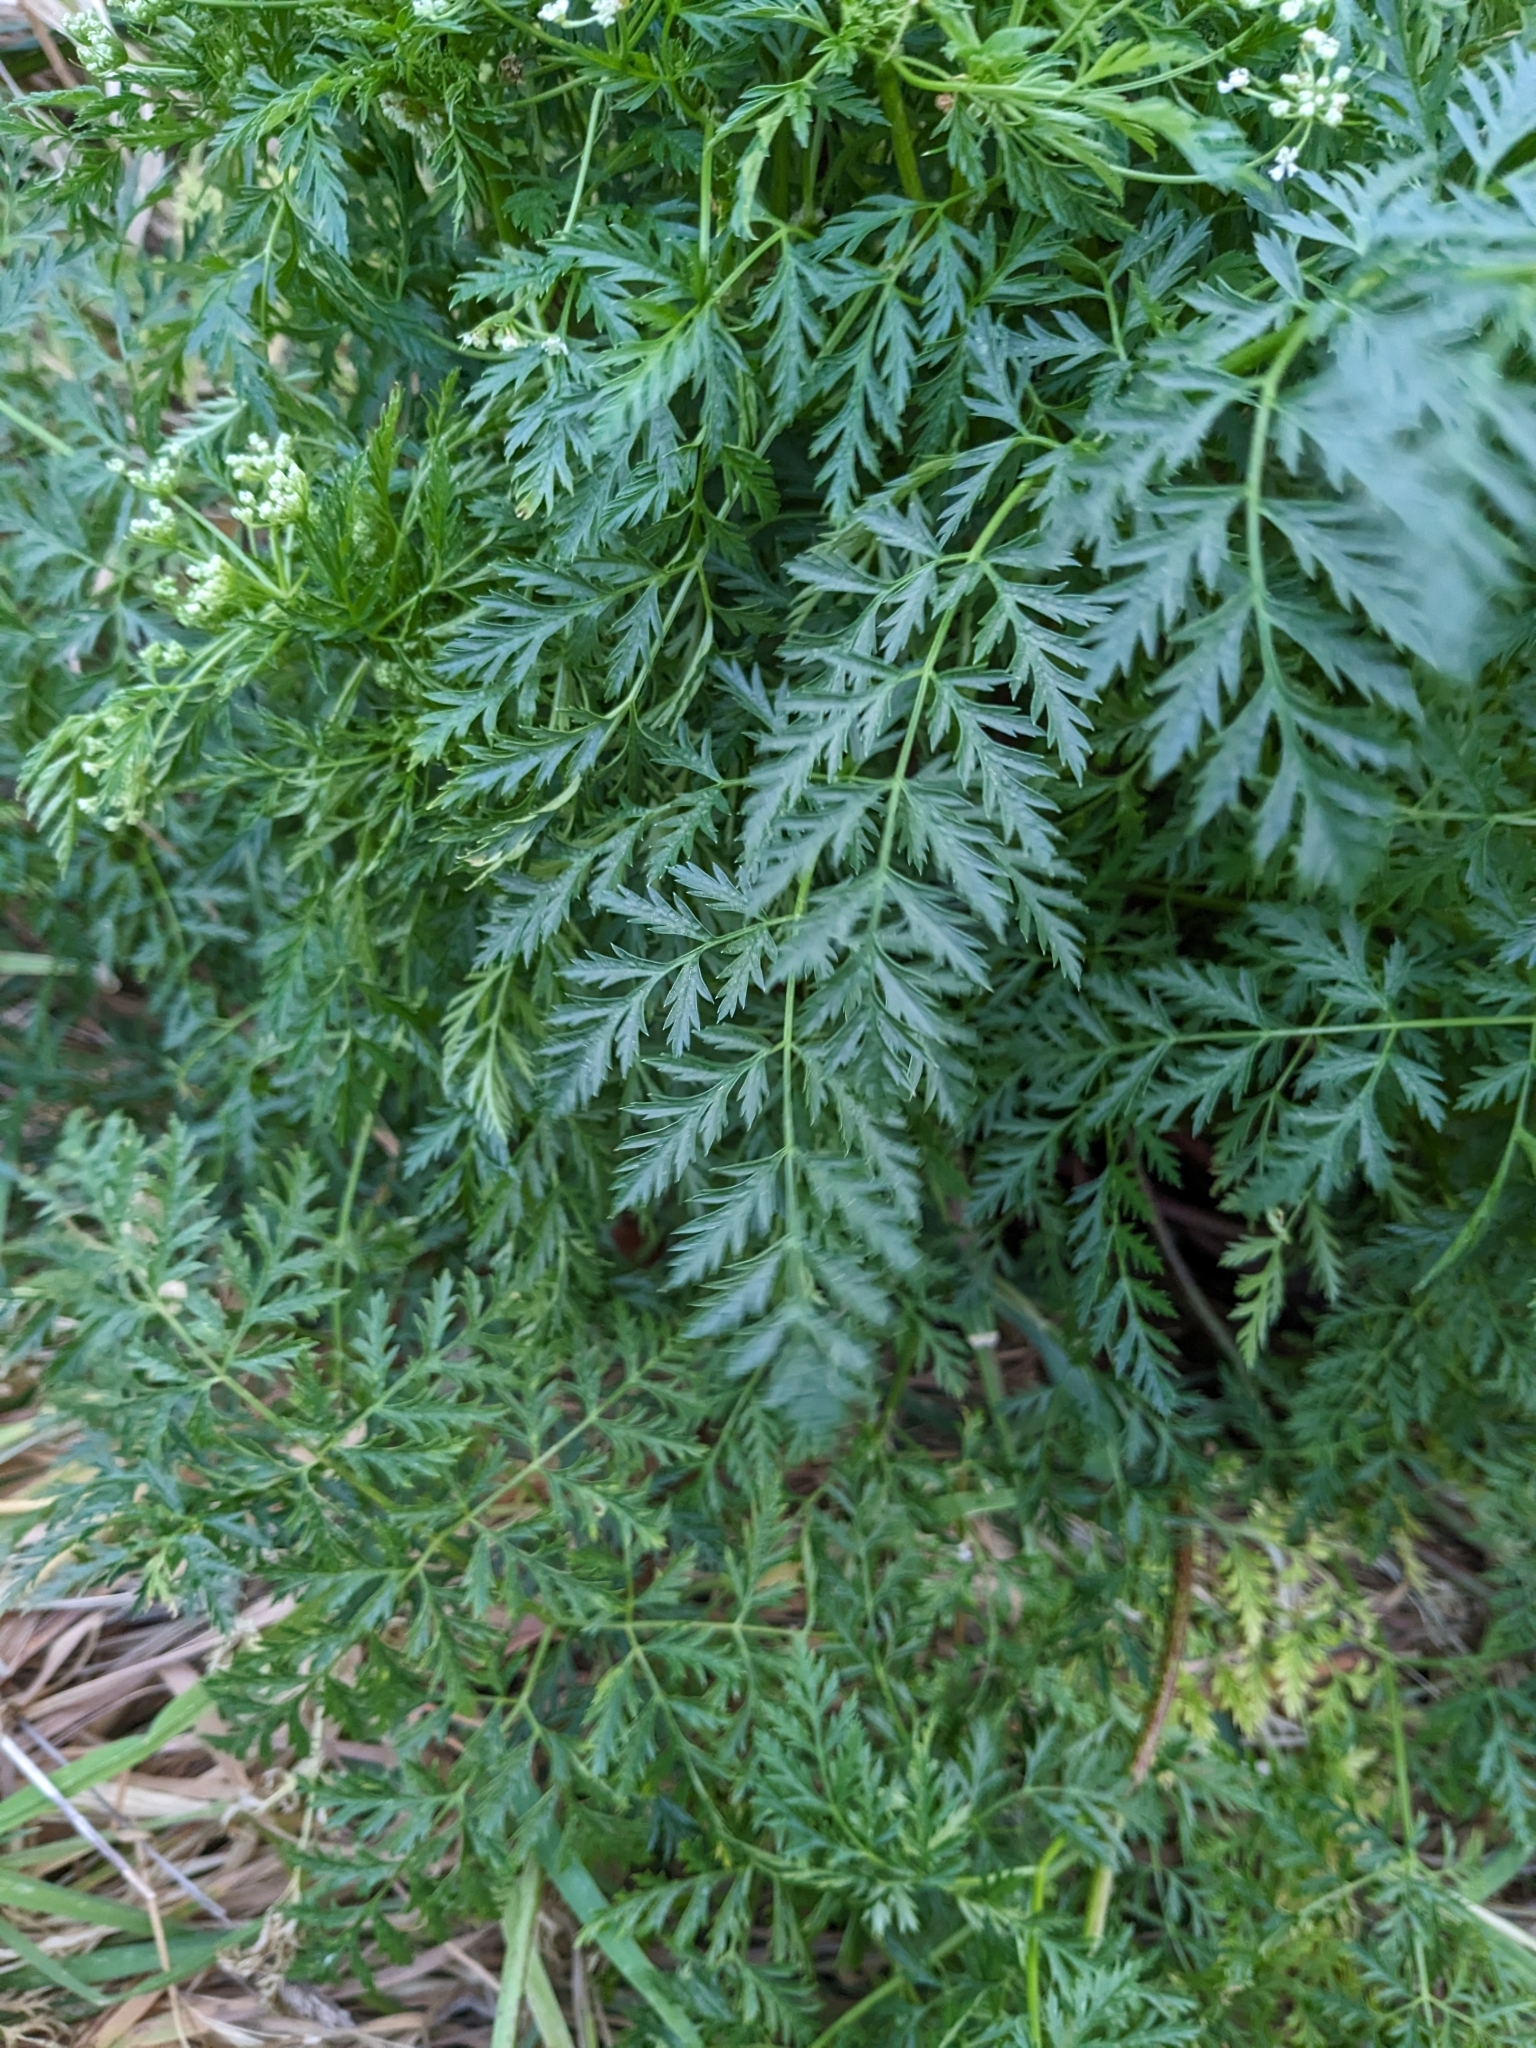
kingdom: Plantae
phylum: Tracheophyta
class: Magnoliopsida
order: Apiales
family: Apiaceae
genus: Conium
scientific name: Conium maculatum
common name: Hemlock
